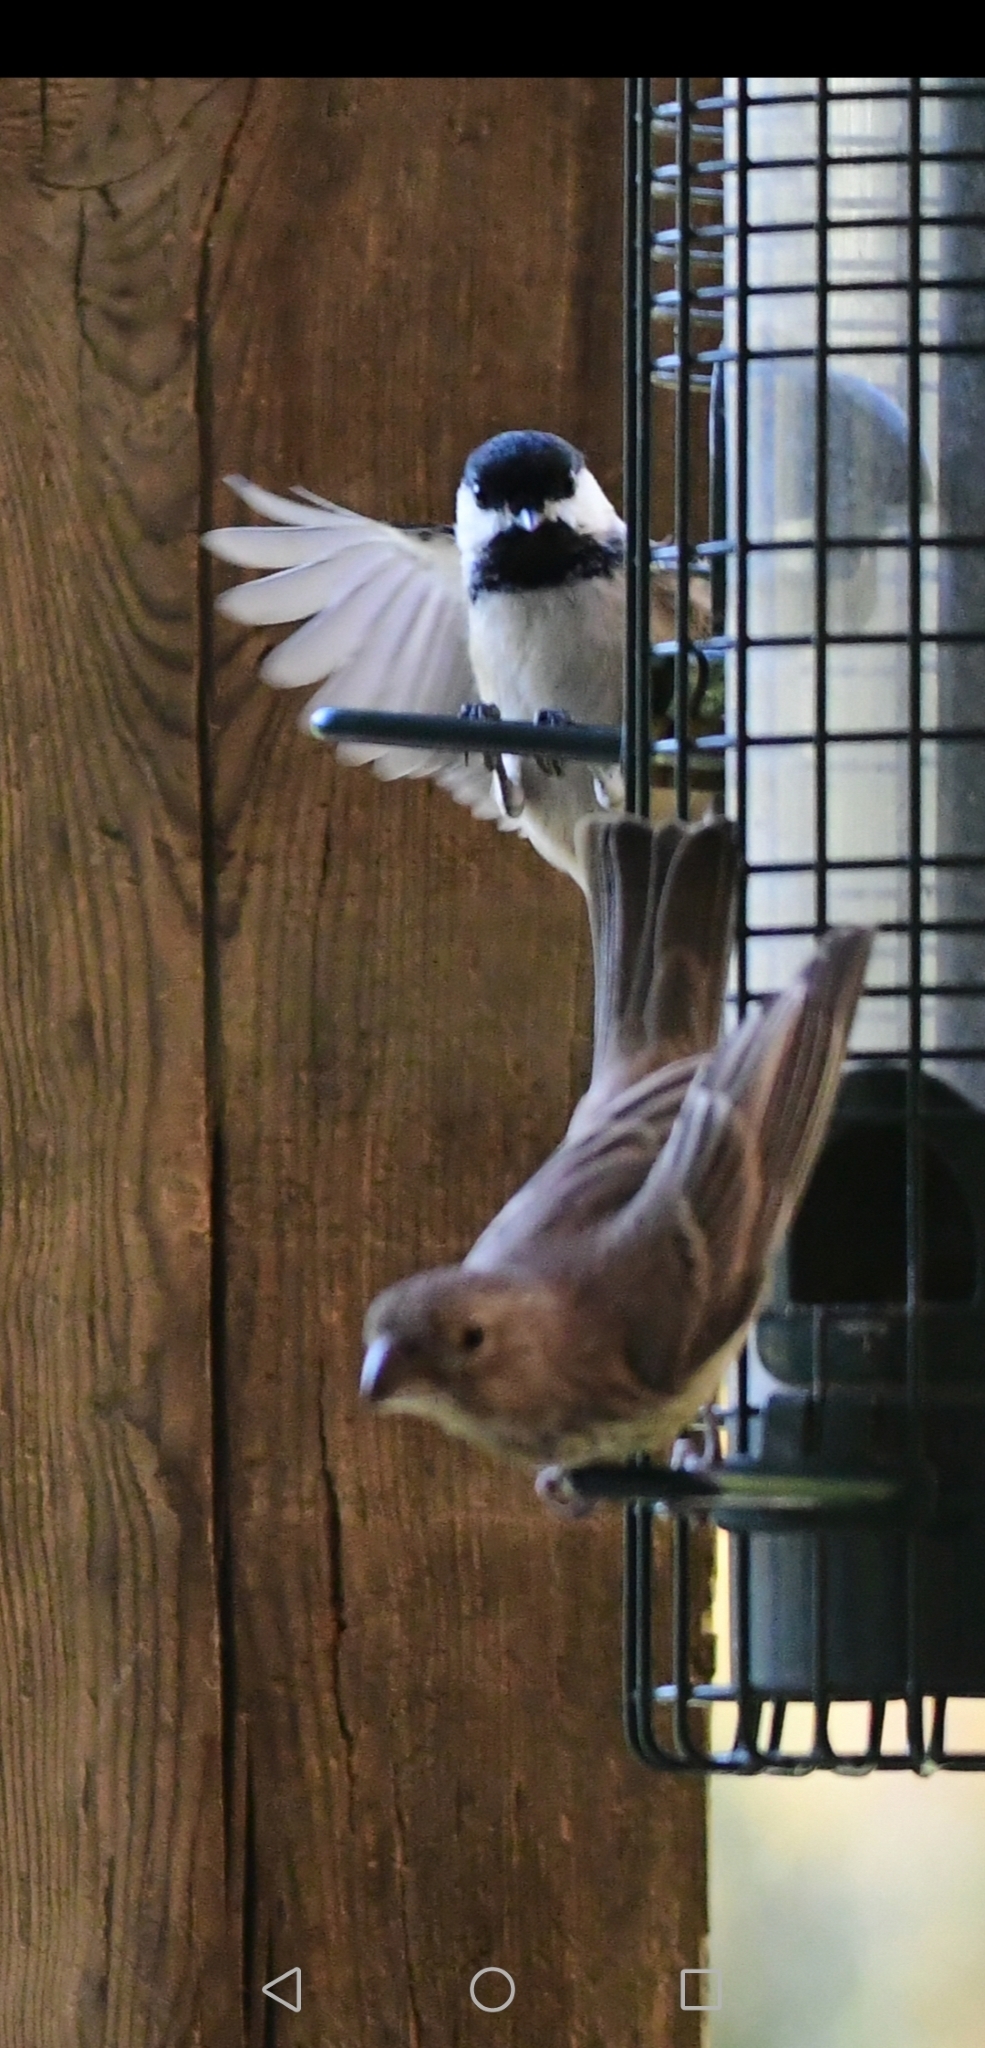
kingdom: Animalia
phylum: Chordata
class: Aves
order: Passeriformes
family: Fringillidae
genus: Haemorhous
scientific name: Haemorhous mexicanus
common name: House finch
